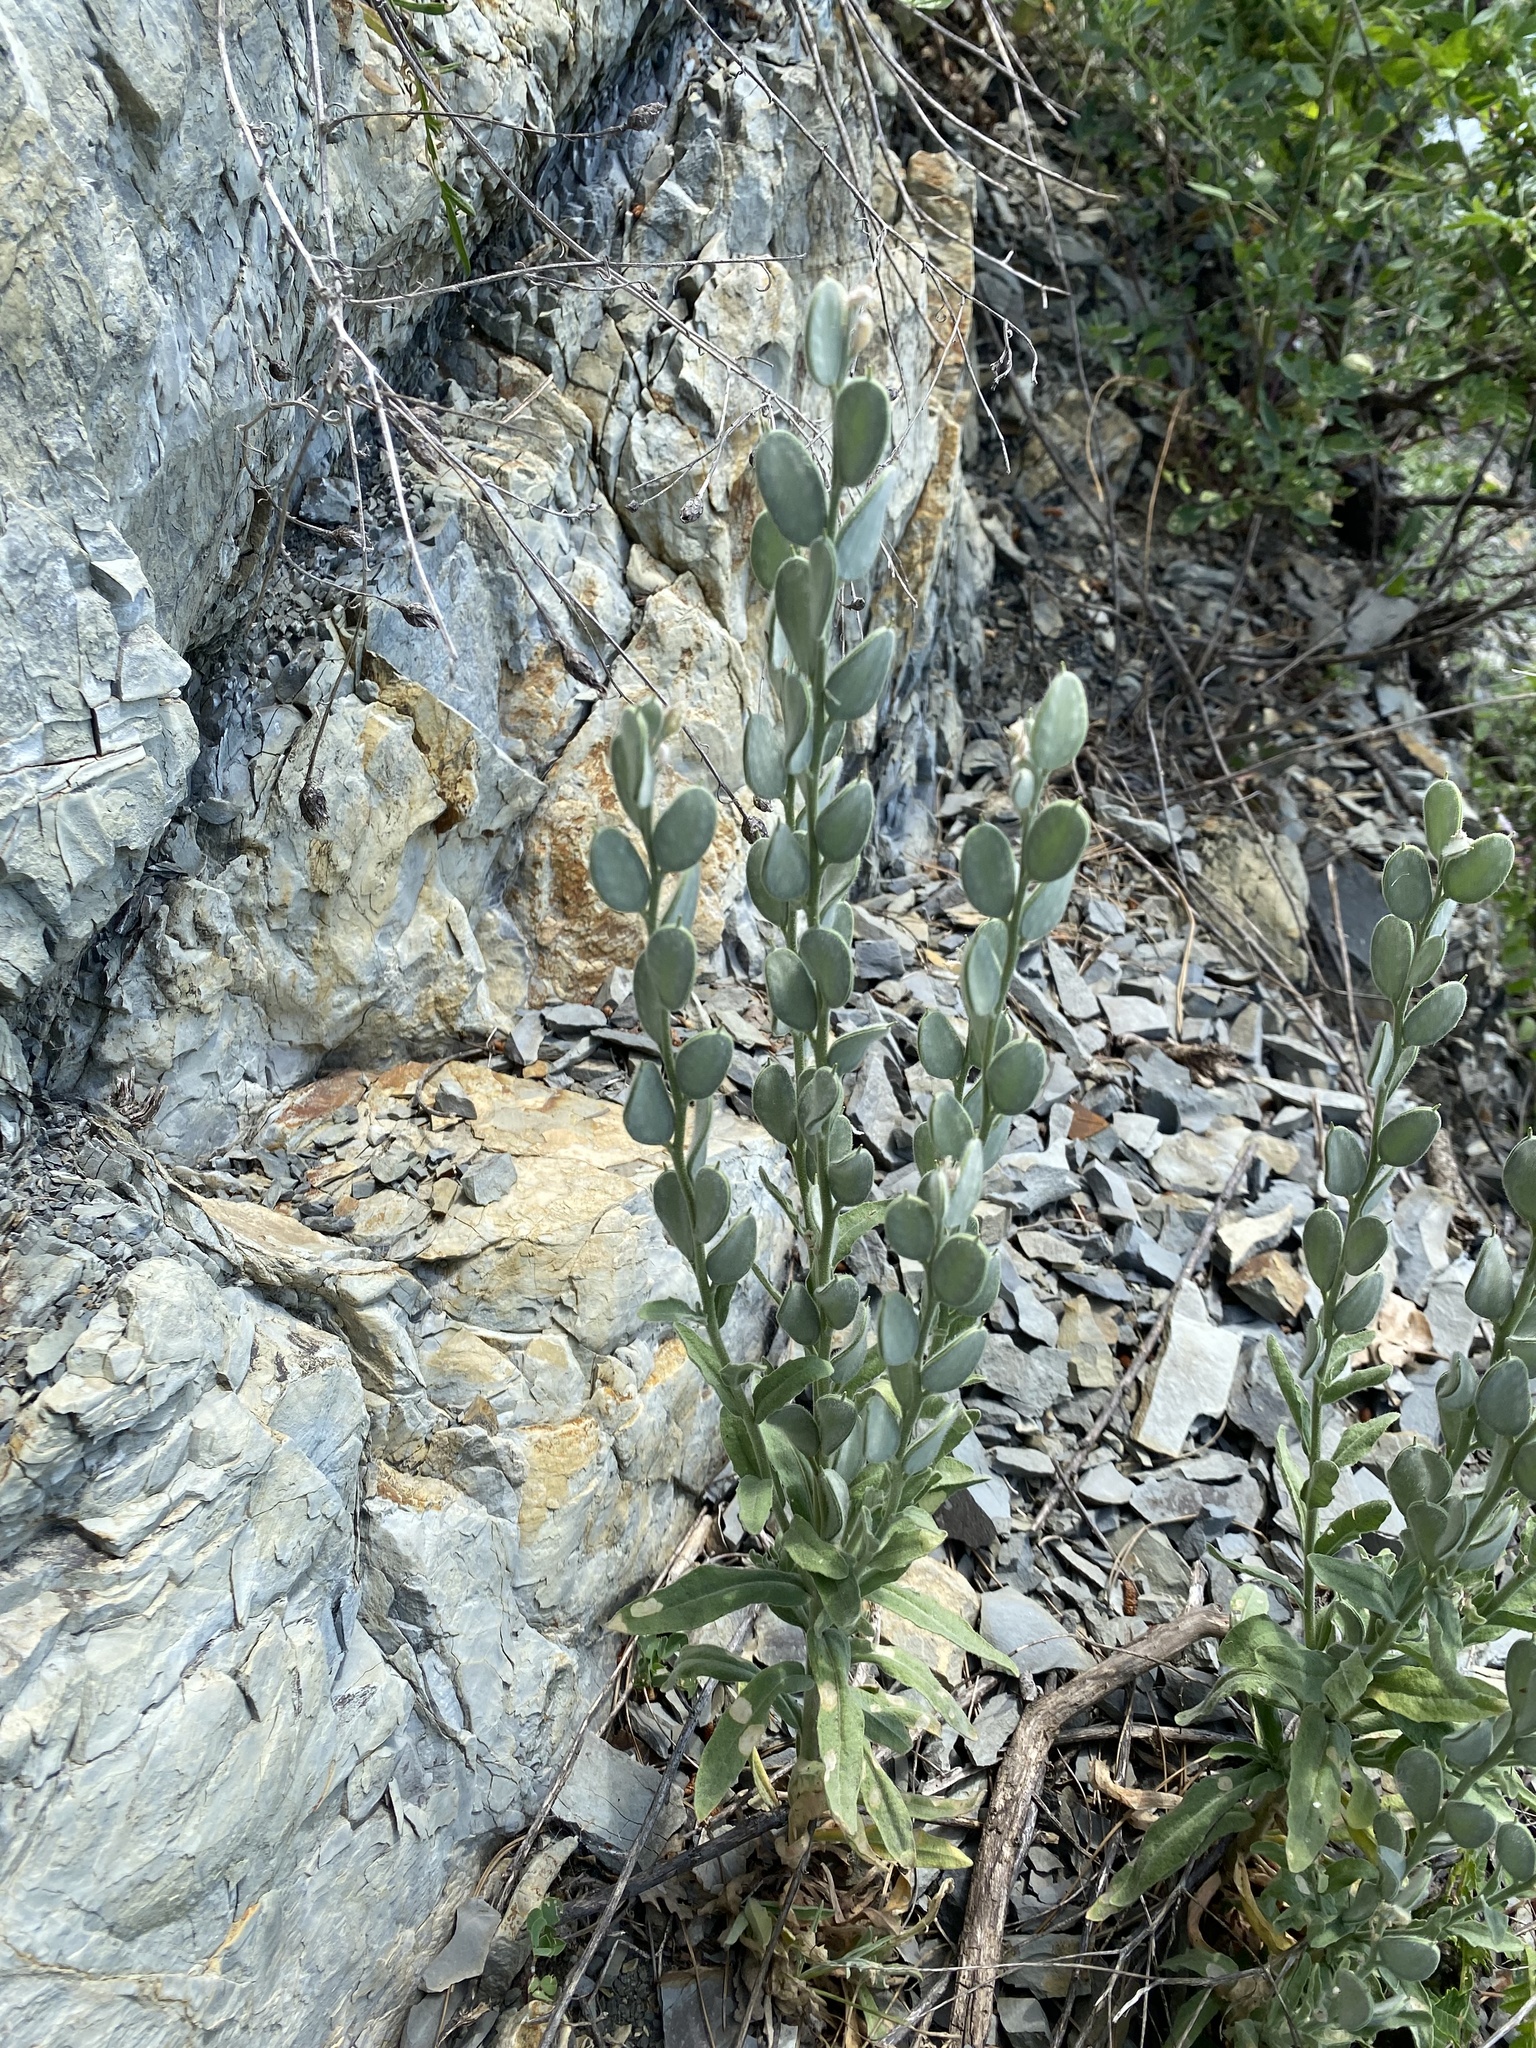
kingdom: Plantae
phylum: Tracheophyta
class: Magnoliopsida
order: Brassicales
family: Brassicaceae
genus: Fibigia
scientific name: Fibigia clypeata
